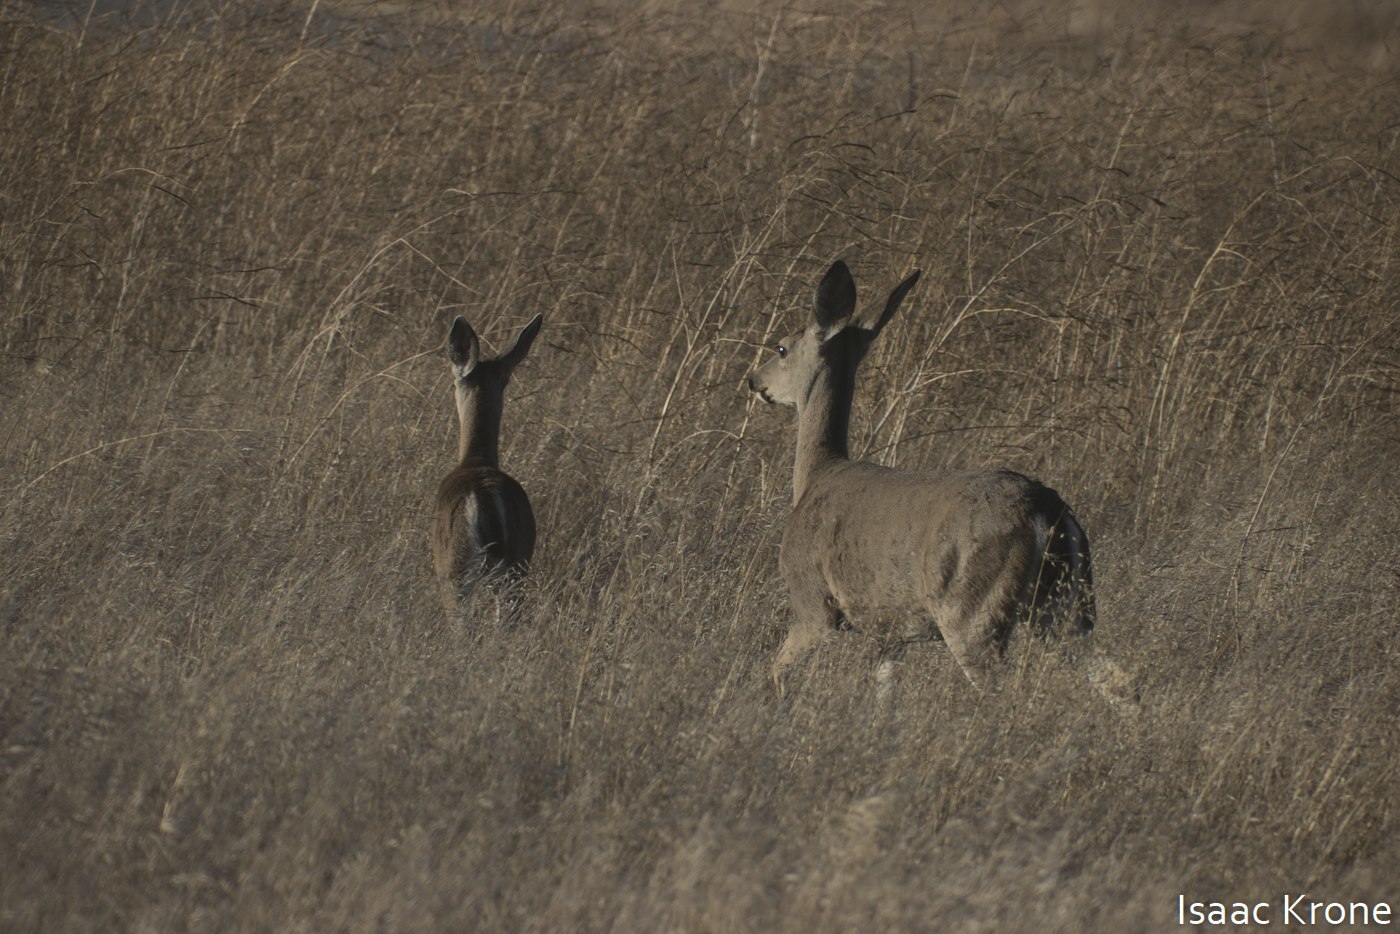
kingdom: Animalia
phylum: Chordata
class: Mammalia
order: Artiodactyla
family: Cervidae
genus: Odocoileus
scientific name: Odocoileus hemionus
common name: Mule deer
